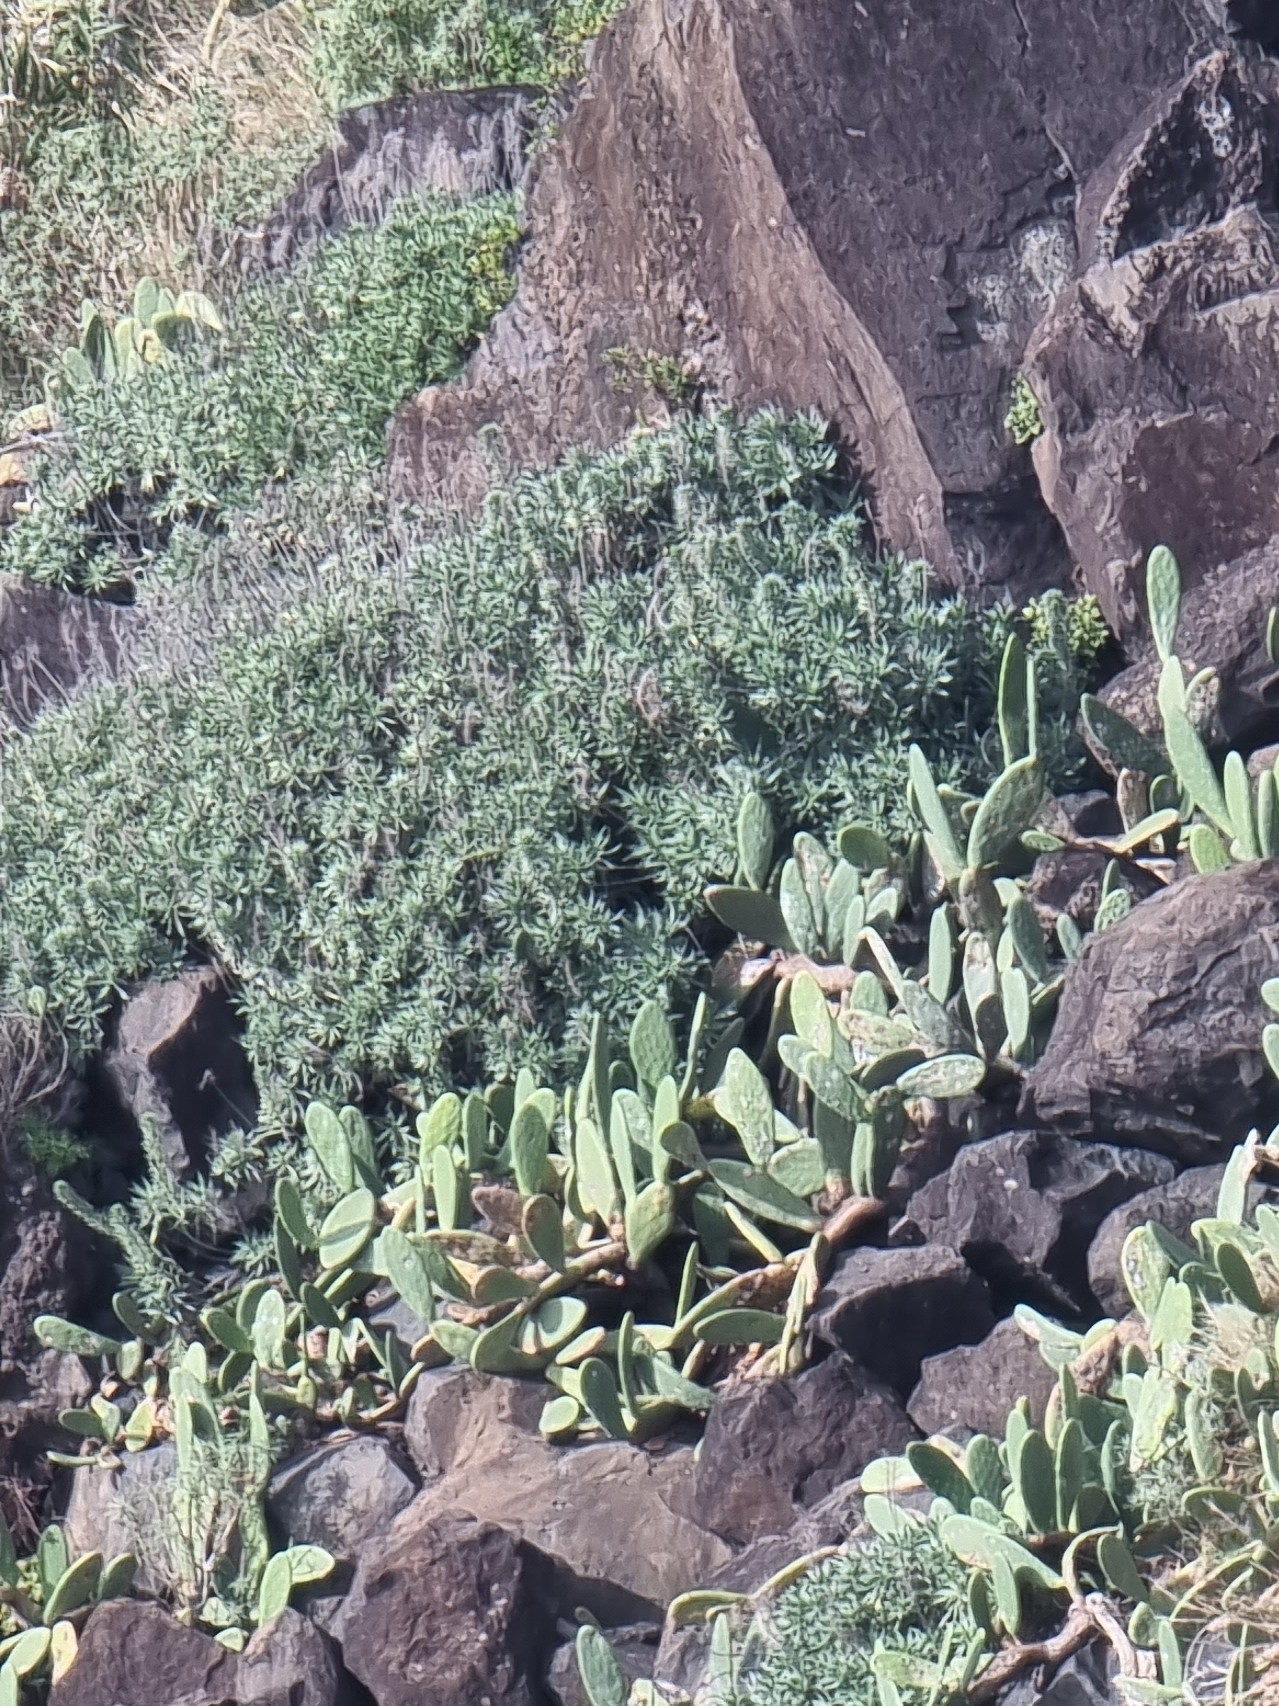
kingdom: Plantae
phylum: Tracheophyta
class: Magnoliopsida
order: Boraginales
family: Boraginaceae
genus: Echium
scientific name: Echium nervosum
